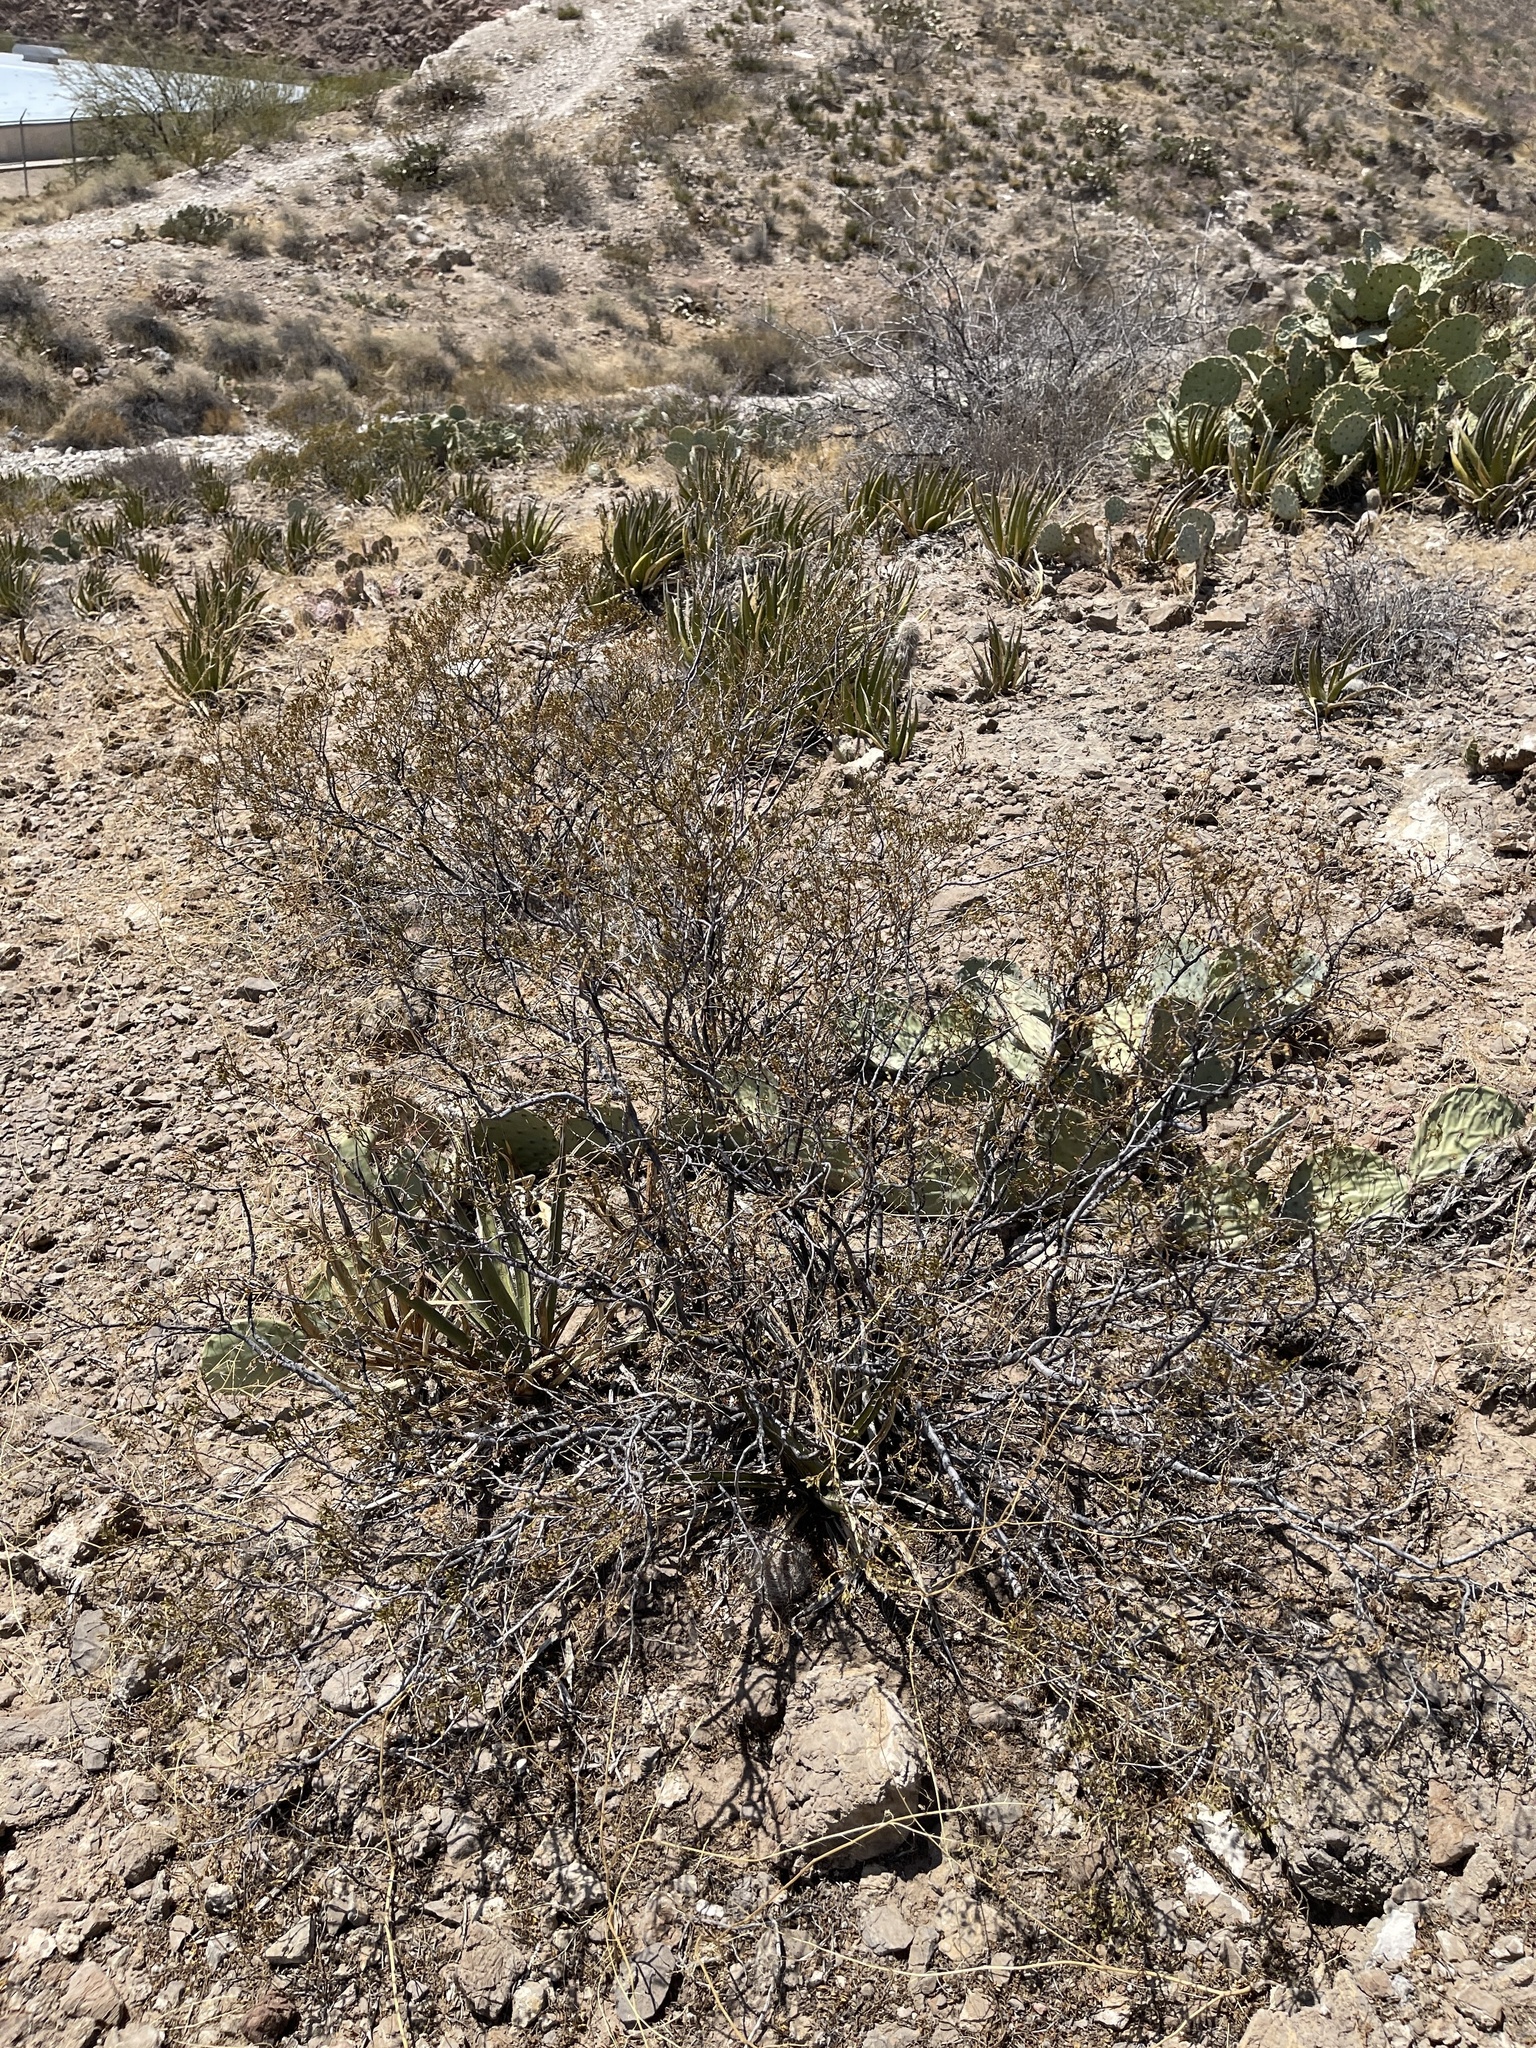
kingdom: Plantae
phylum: Tracheophyta
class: Magnoliopsida
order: Zygophyllales
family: Zygophyllaceae
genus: Larrea
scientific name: Larrea tridentata
